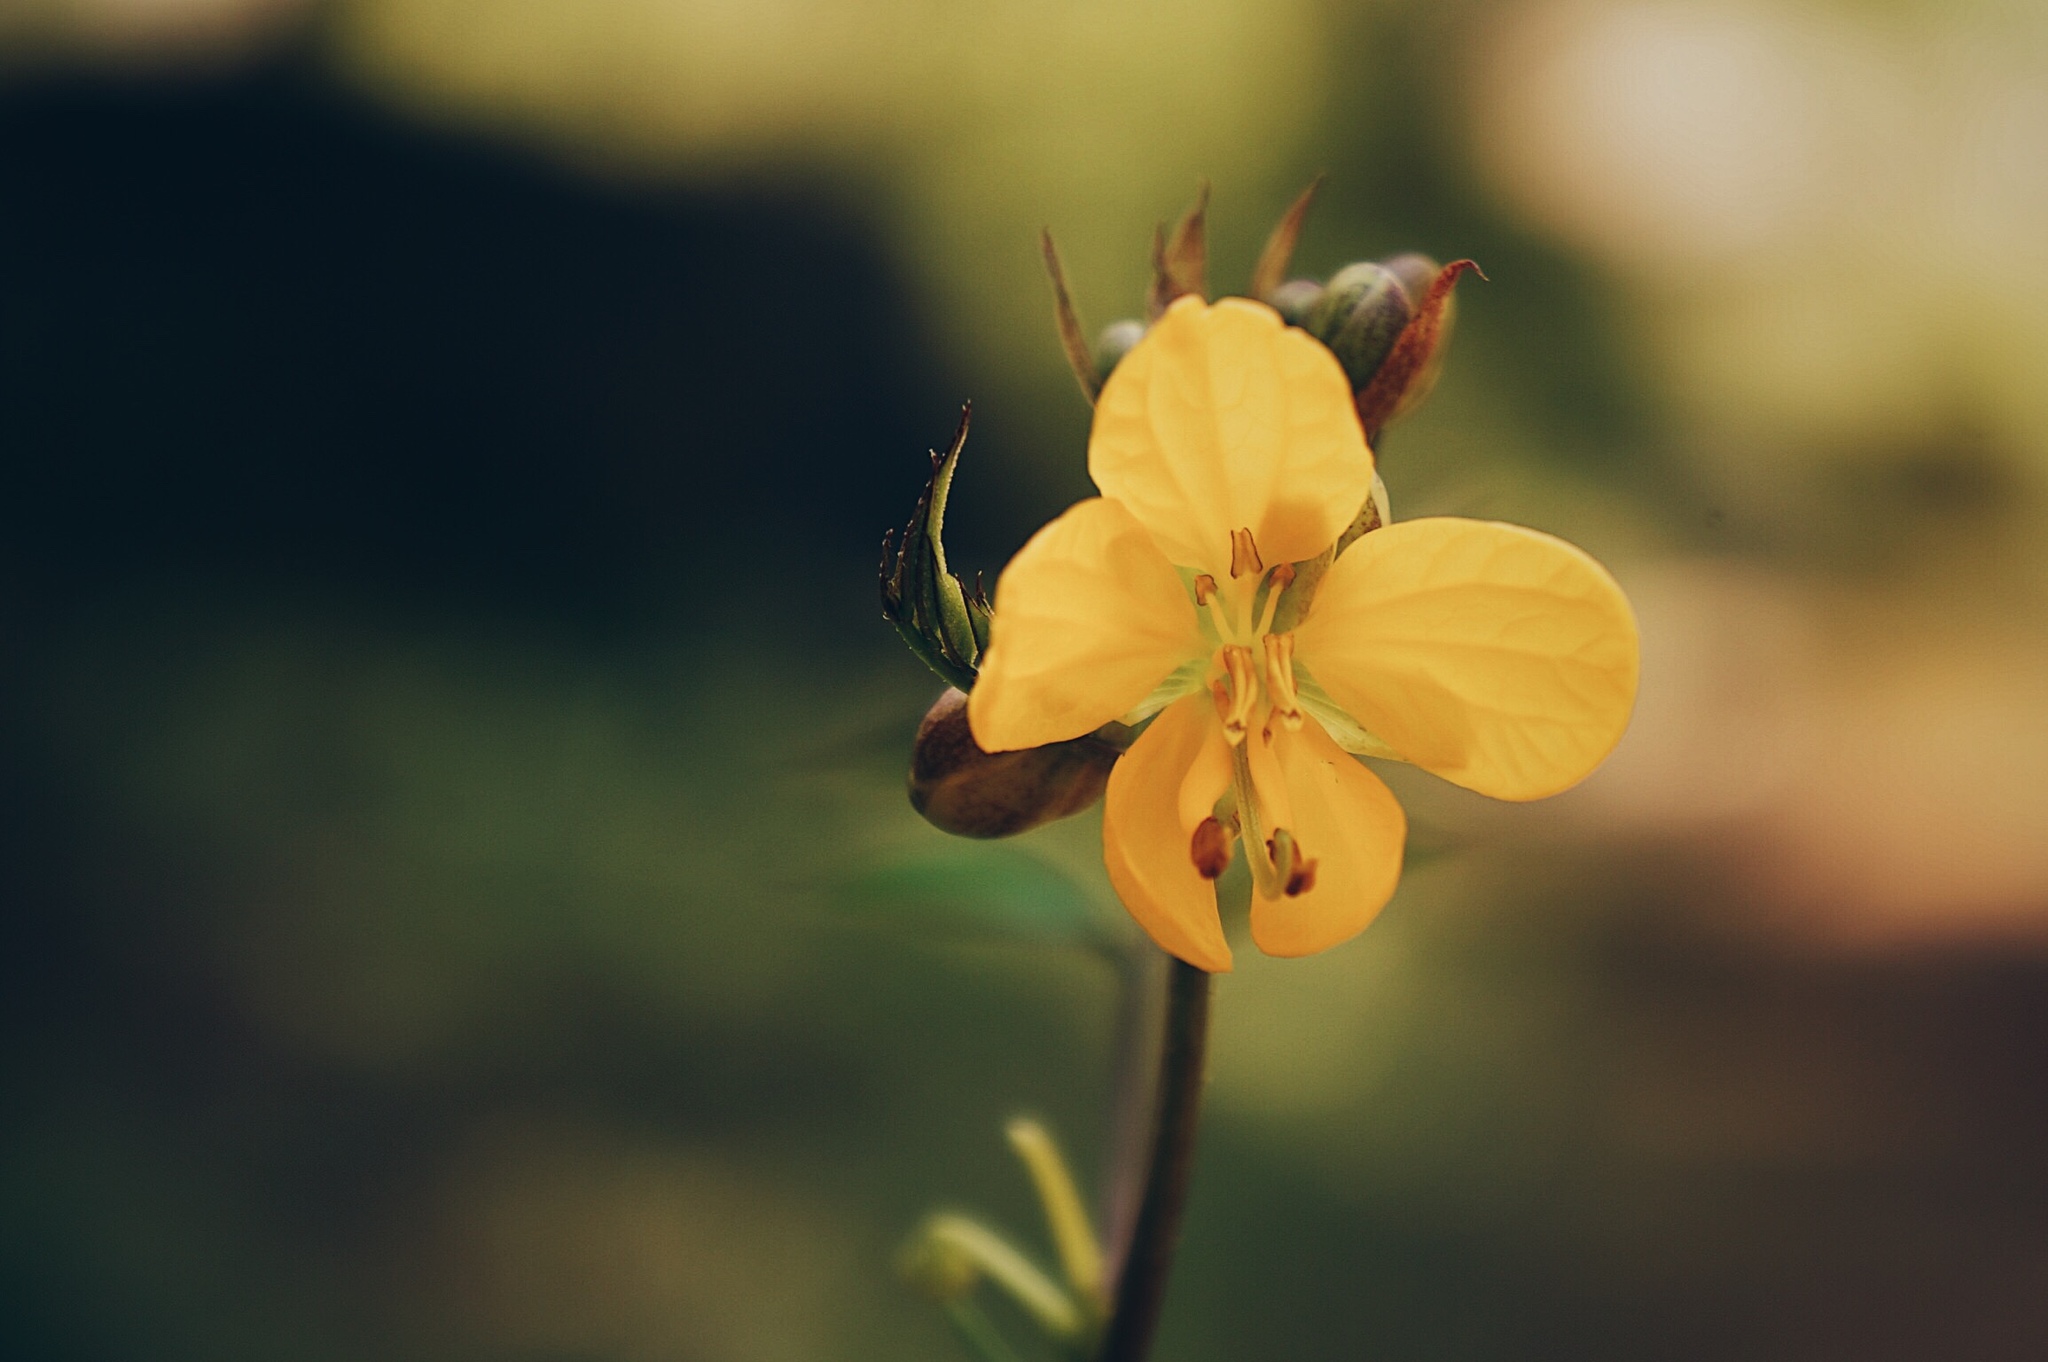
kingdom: Plantae
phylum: Tracheophyta
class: Magnoliopsida
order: Fabales
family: Fabaceae
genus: Senna
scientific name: Senna occidentalis
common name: Septicweed
